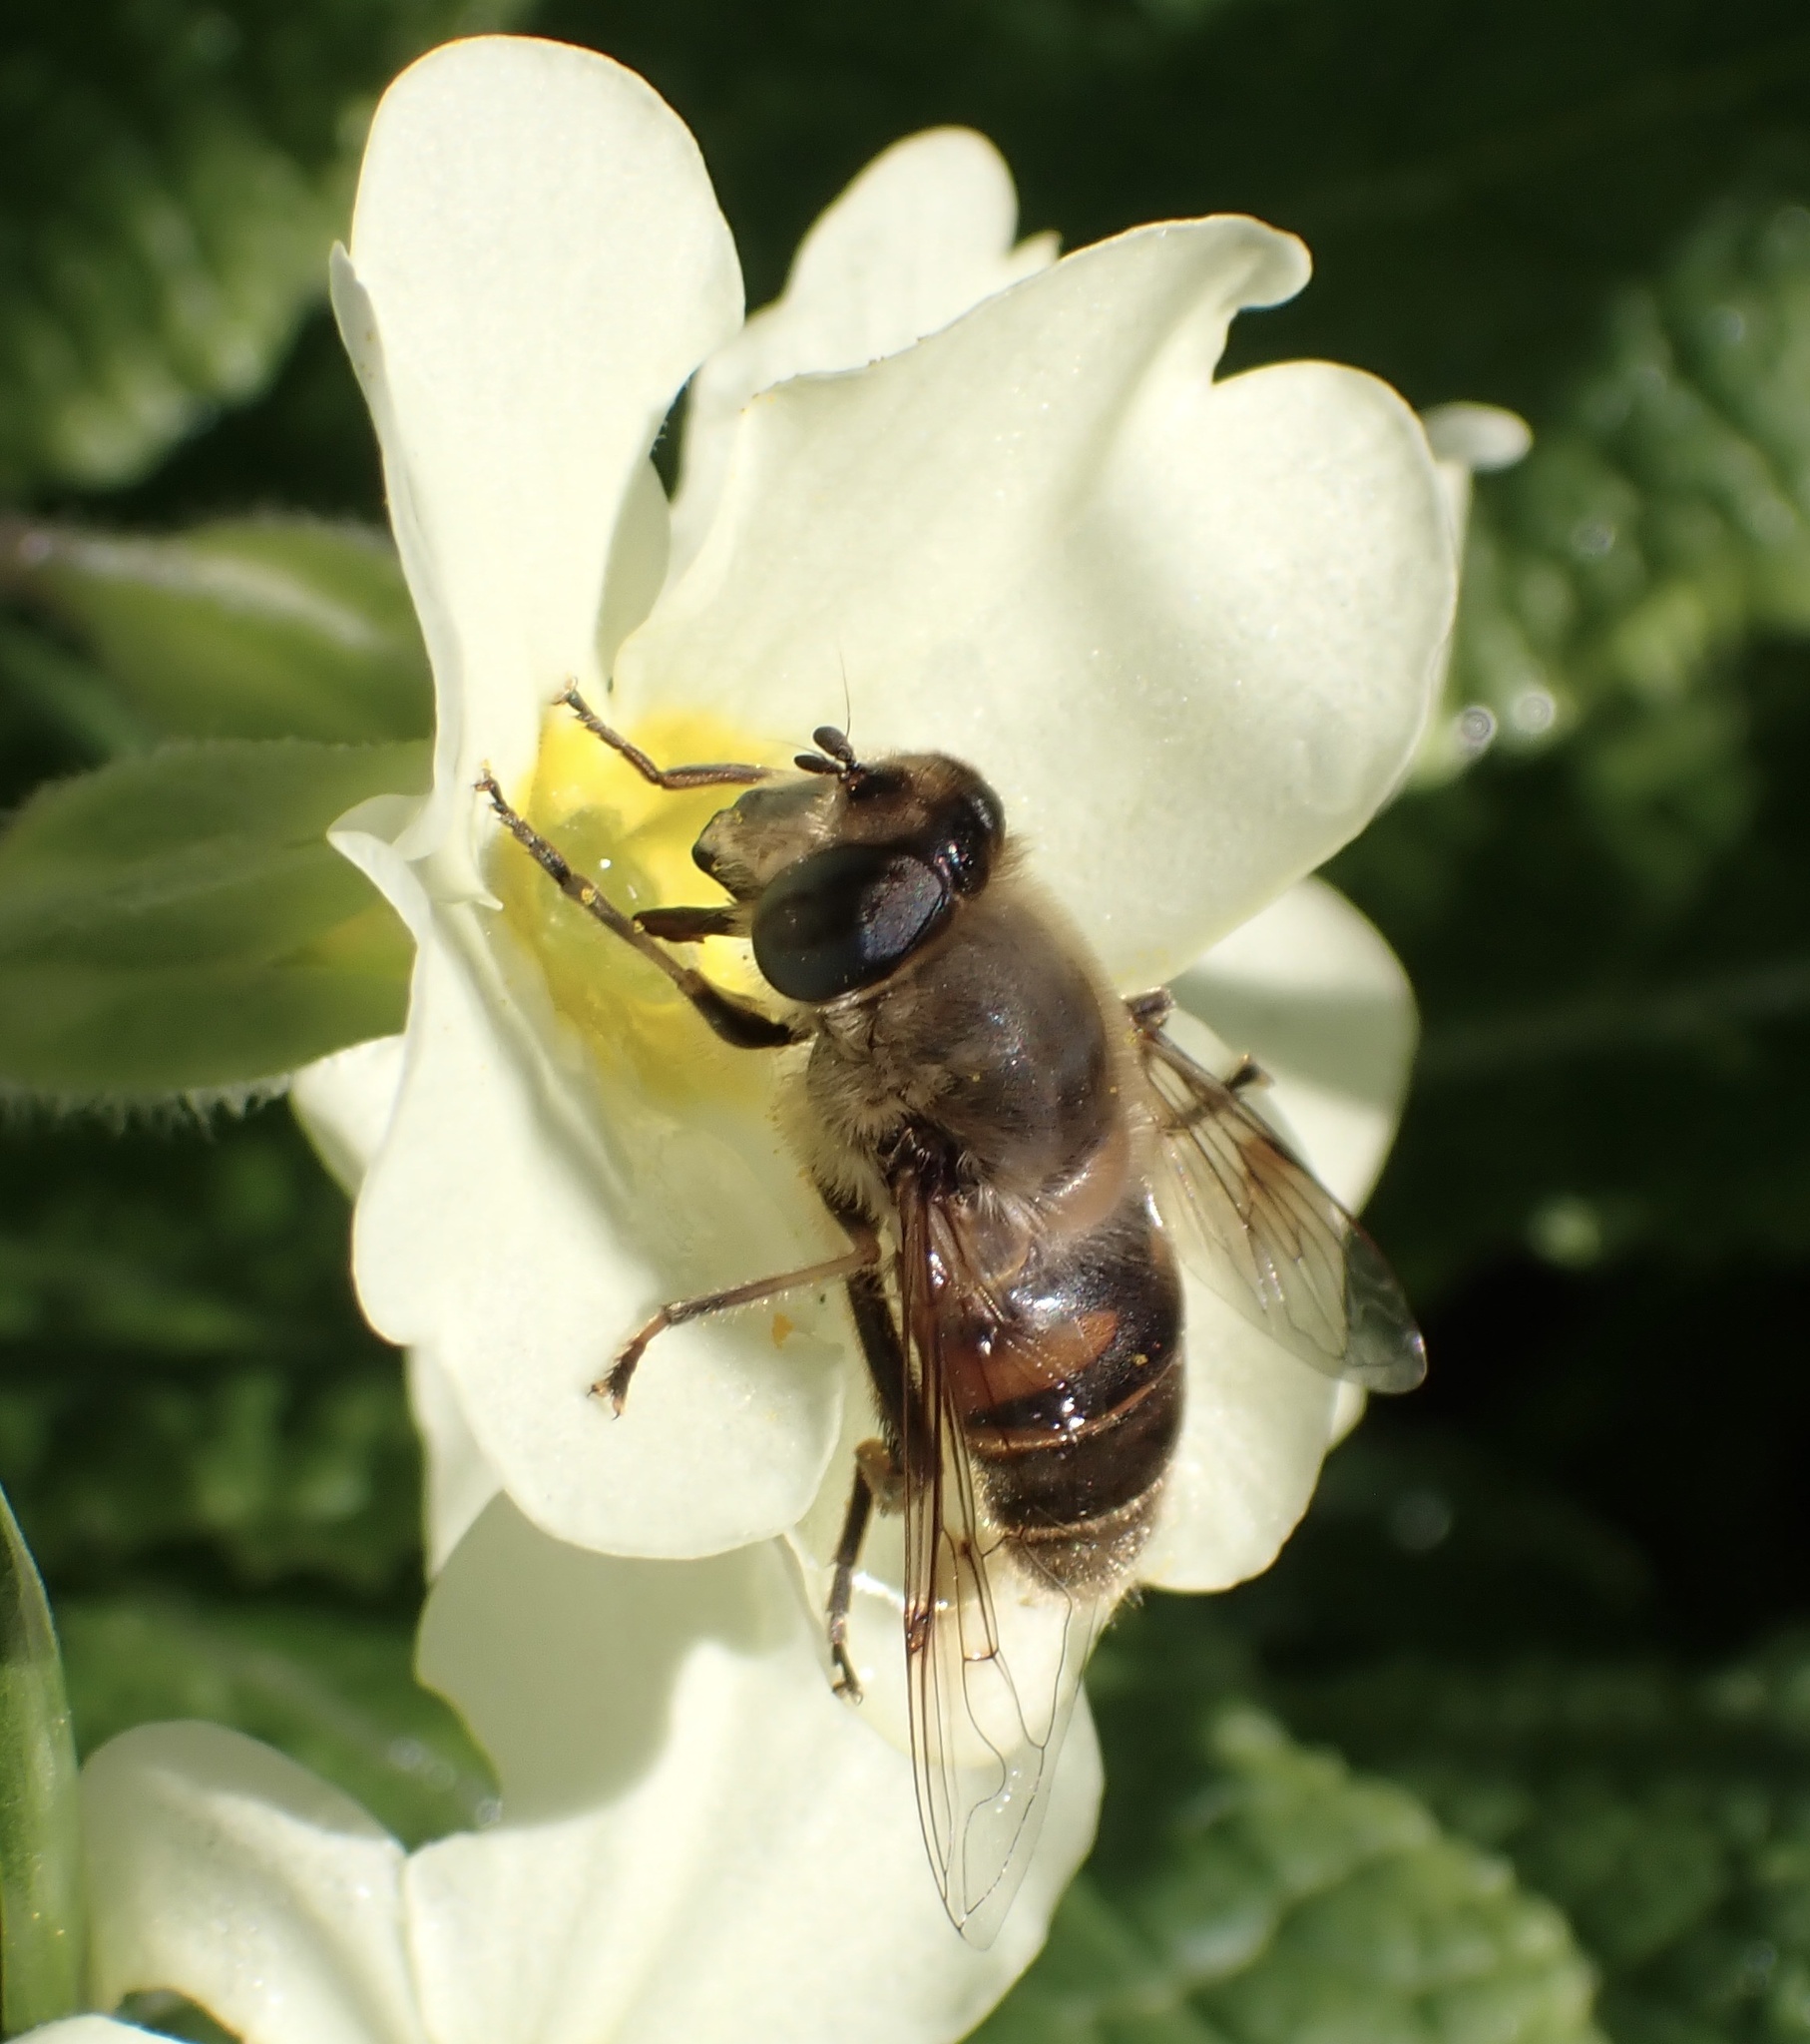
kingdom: Animalia
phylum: Arthropoda
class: Insecta
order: Diptera
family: Syrphidae
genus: Eristalis
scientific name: Eristalis tenax
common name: Drone fly
